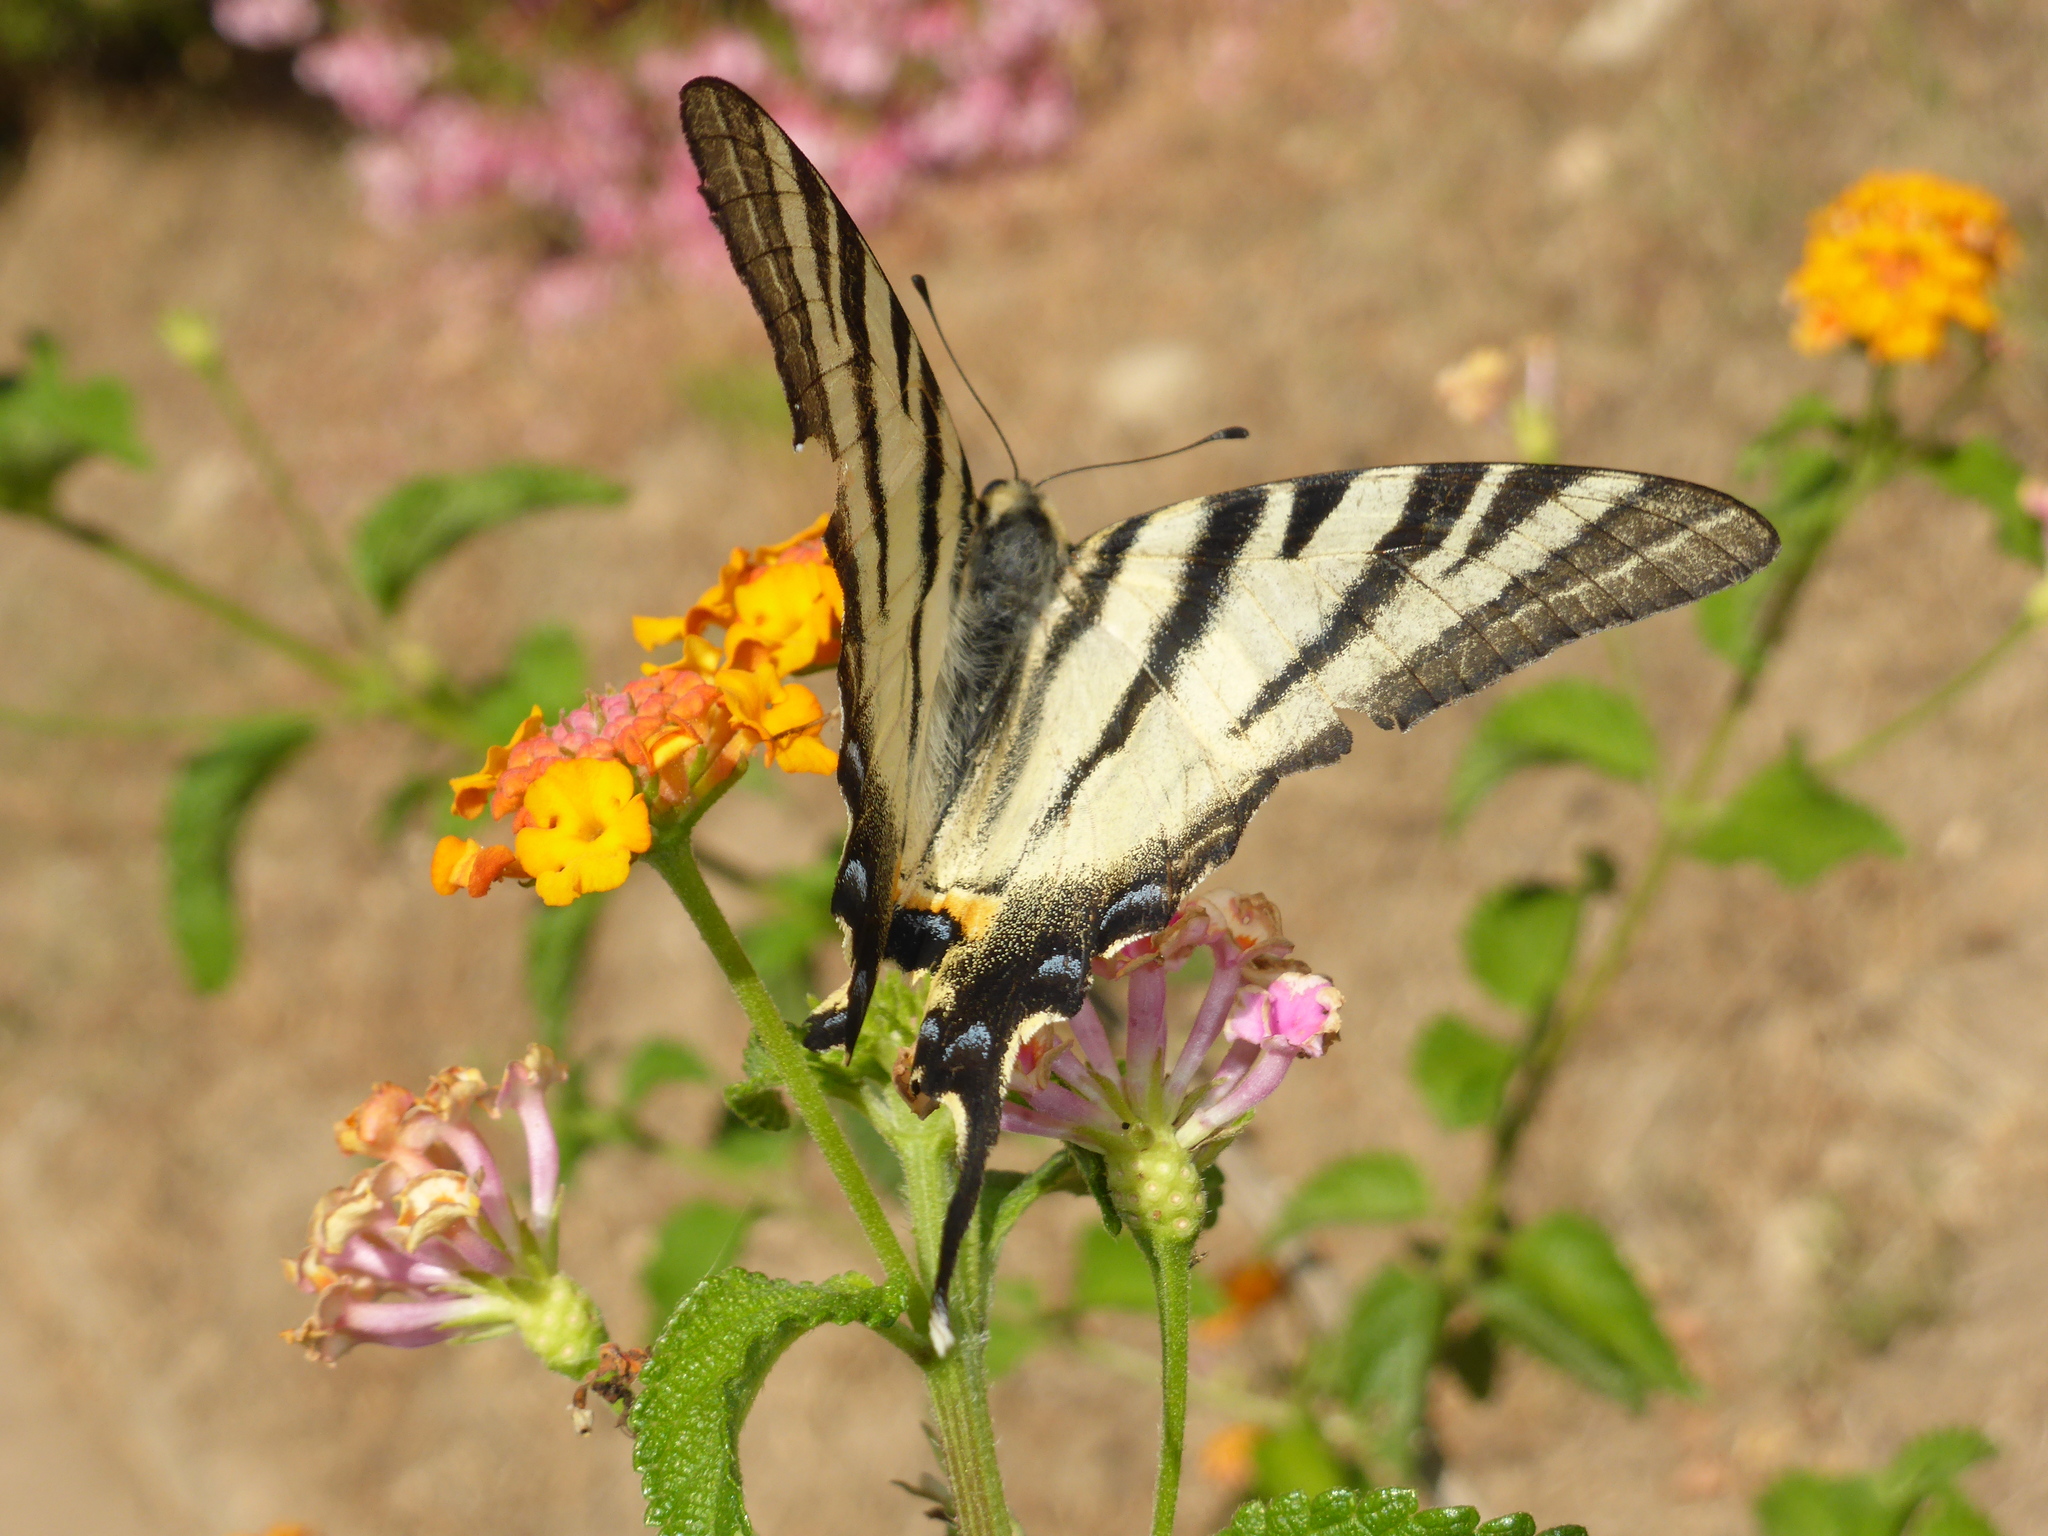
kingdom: Animalia
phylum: Arthropoda
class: Insecta
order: Lepidoptera
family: Papilionidae
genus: Iphiclides
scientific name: Iphiclides podalirius
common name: Scarce swallowtail
